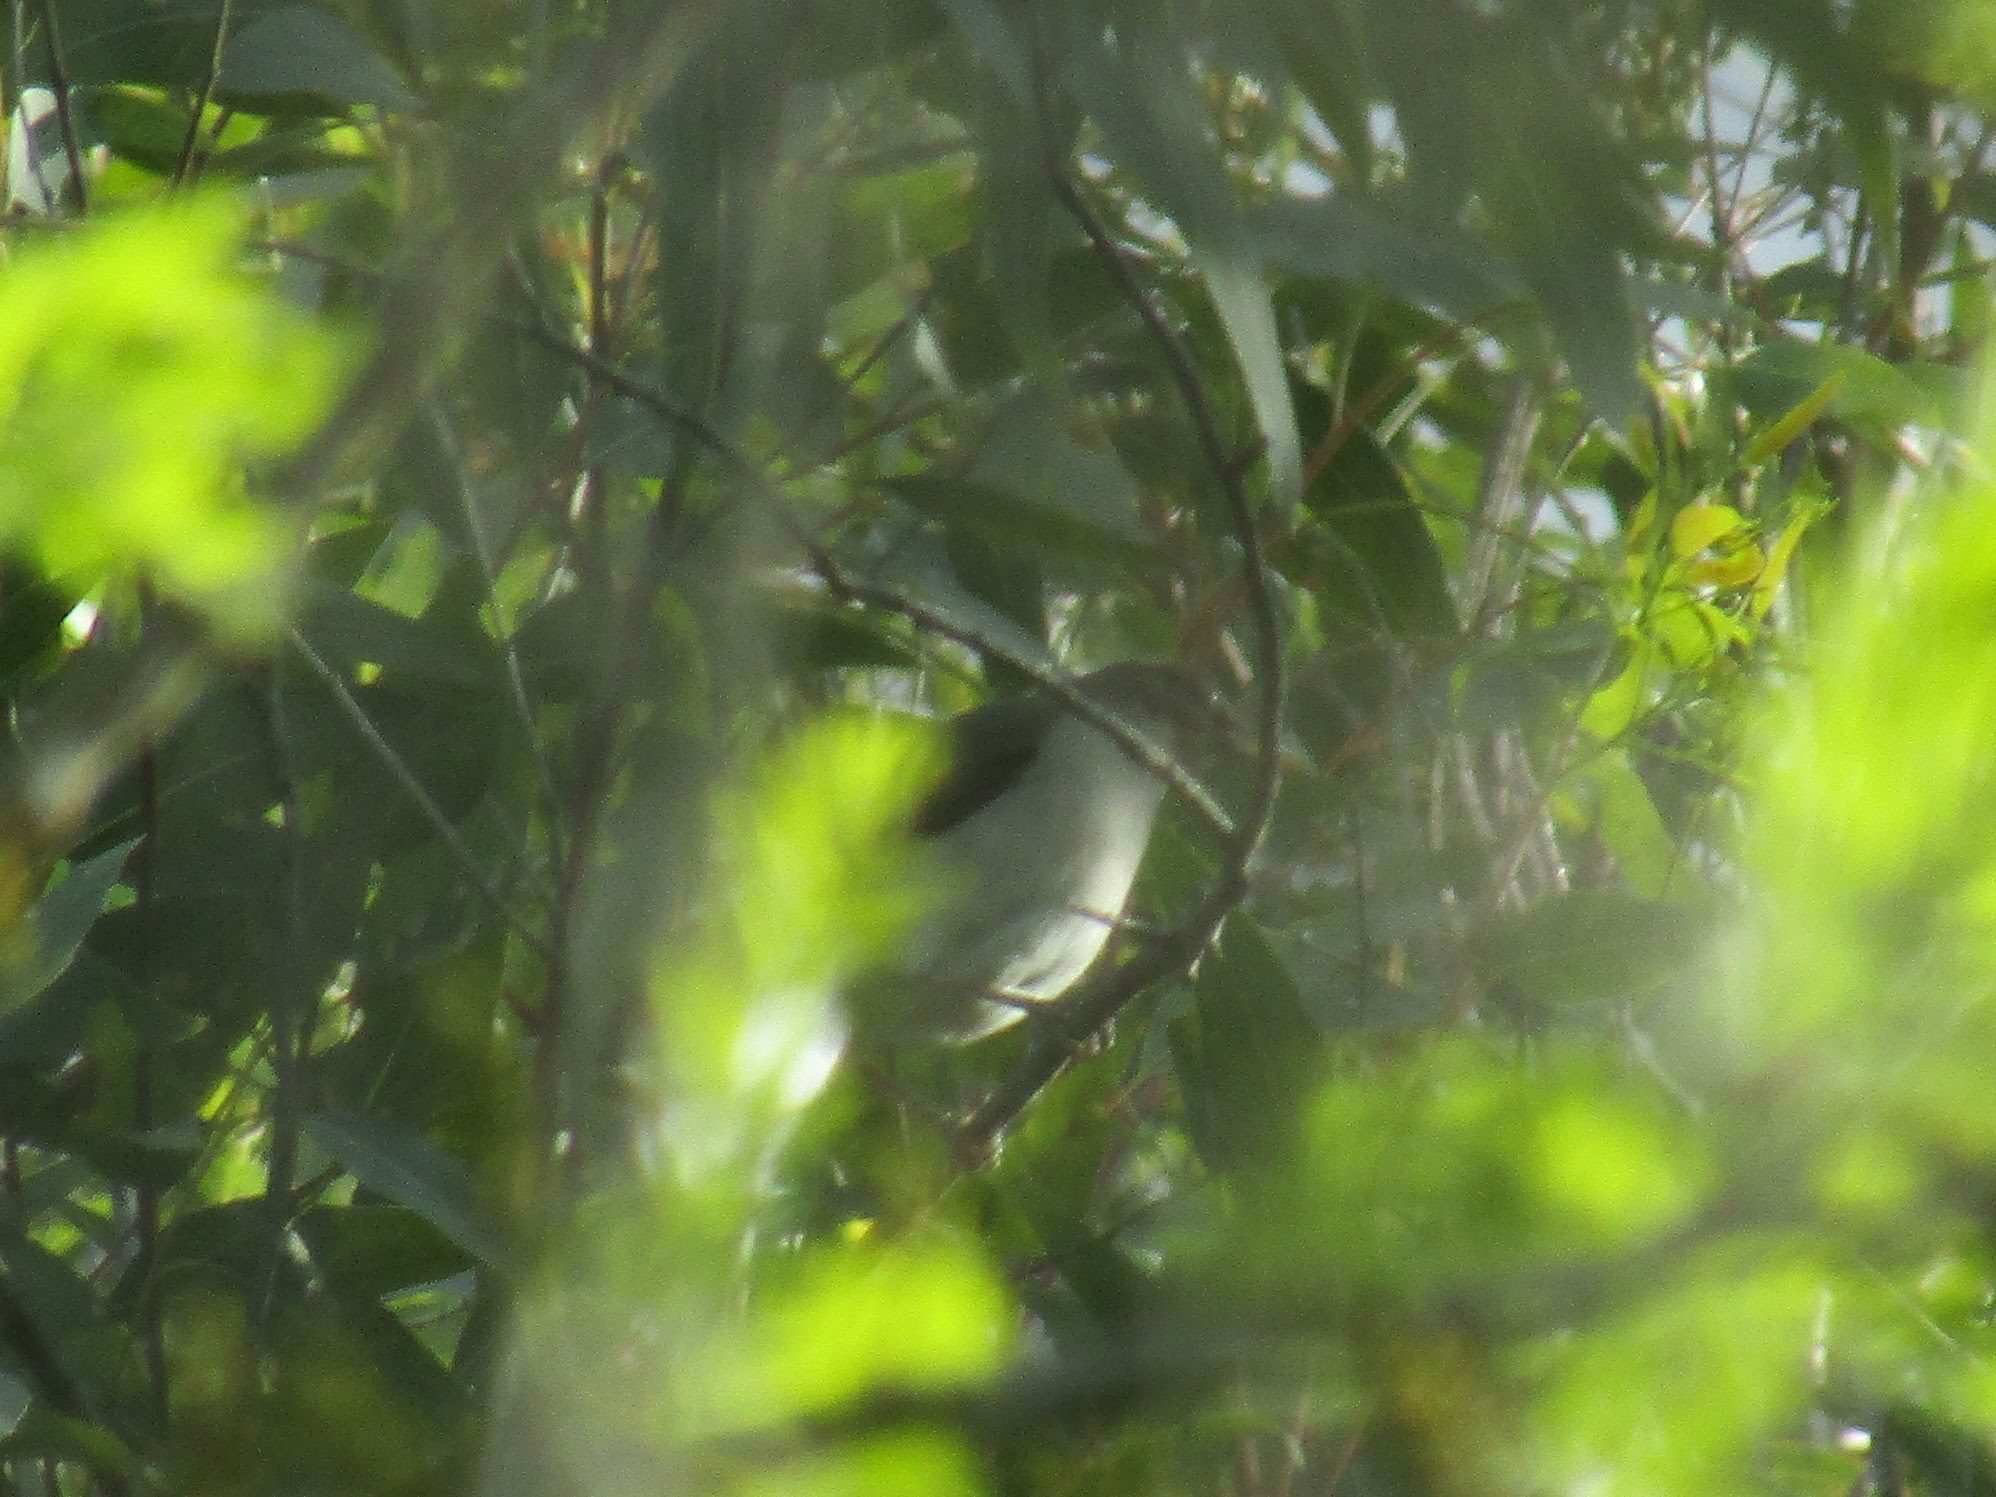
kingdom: Animalia
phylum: Chordata
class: Aves
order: Passeriformes
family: Thamnophilidae
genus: Taraba
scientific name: Taraba major
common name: Great antshrike
